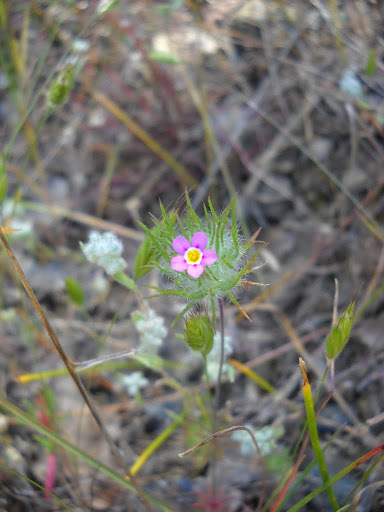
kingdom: Plantae
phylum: Tracheophyta
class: Magnoliopsida
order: Ericales
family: Polemoniaceae
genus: Leptosiphon
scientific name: Leptosiphon ciliatus
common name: Whiskerbrush
